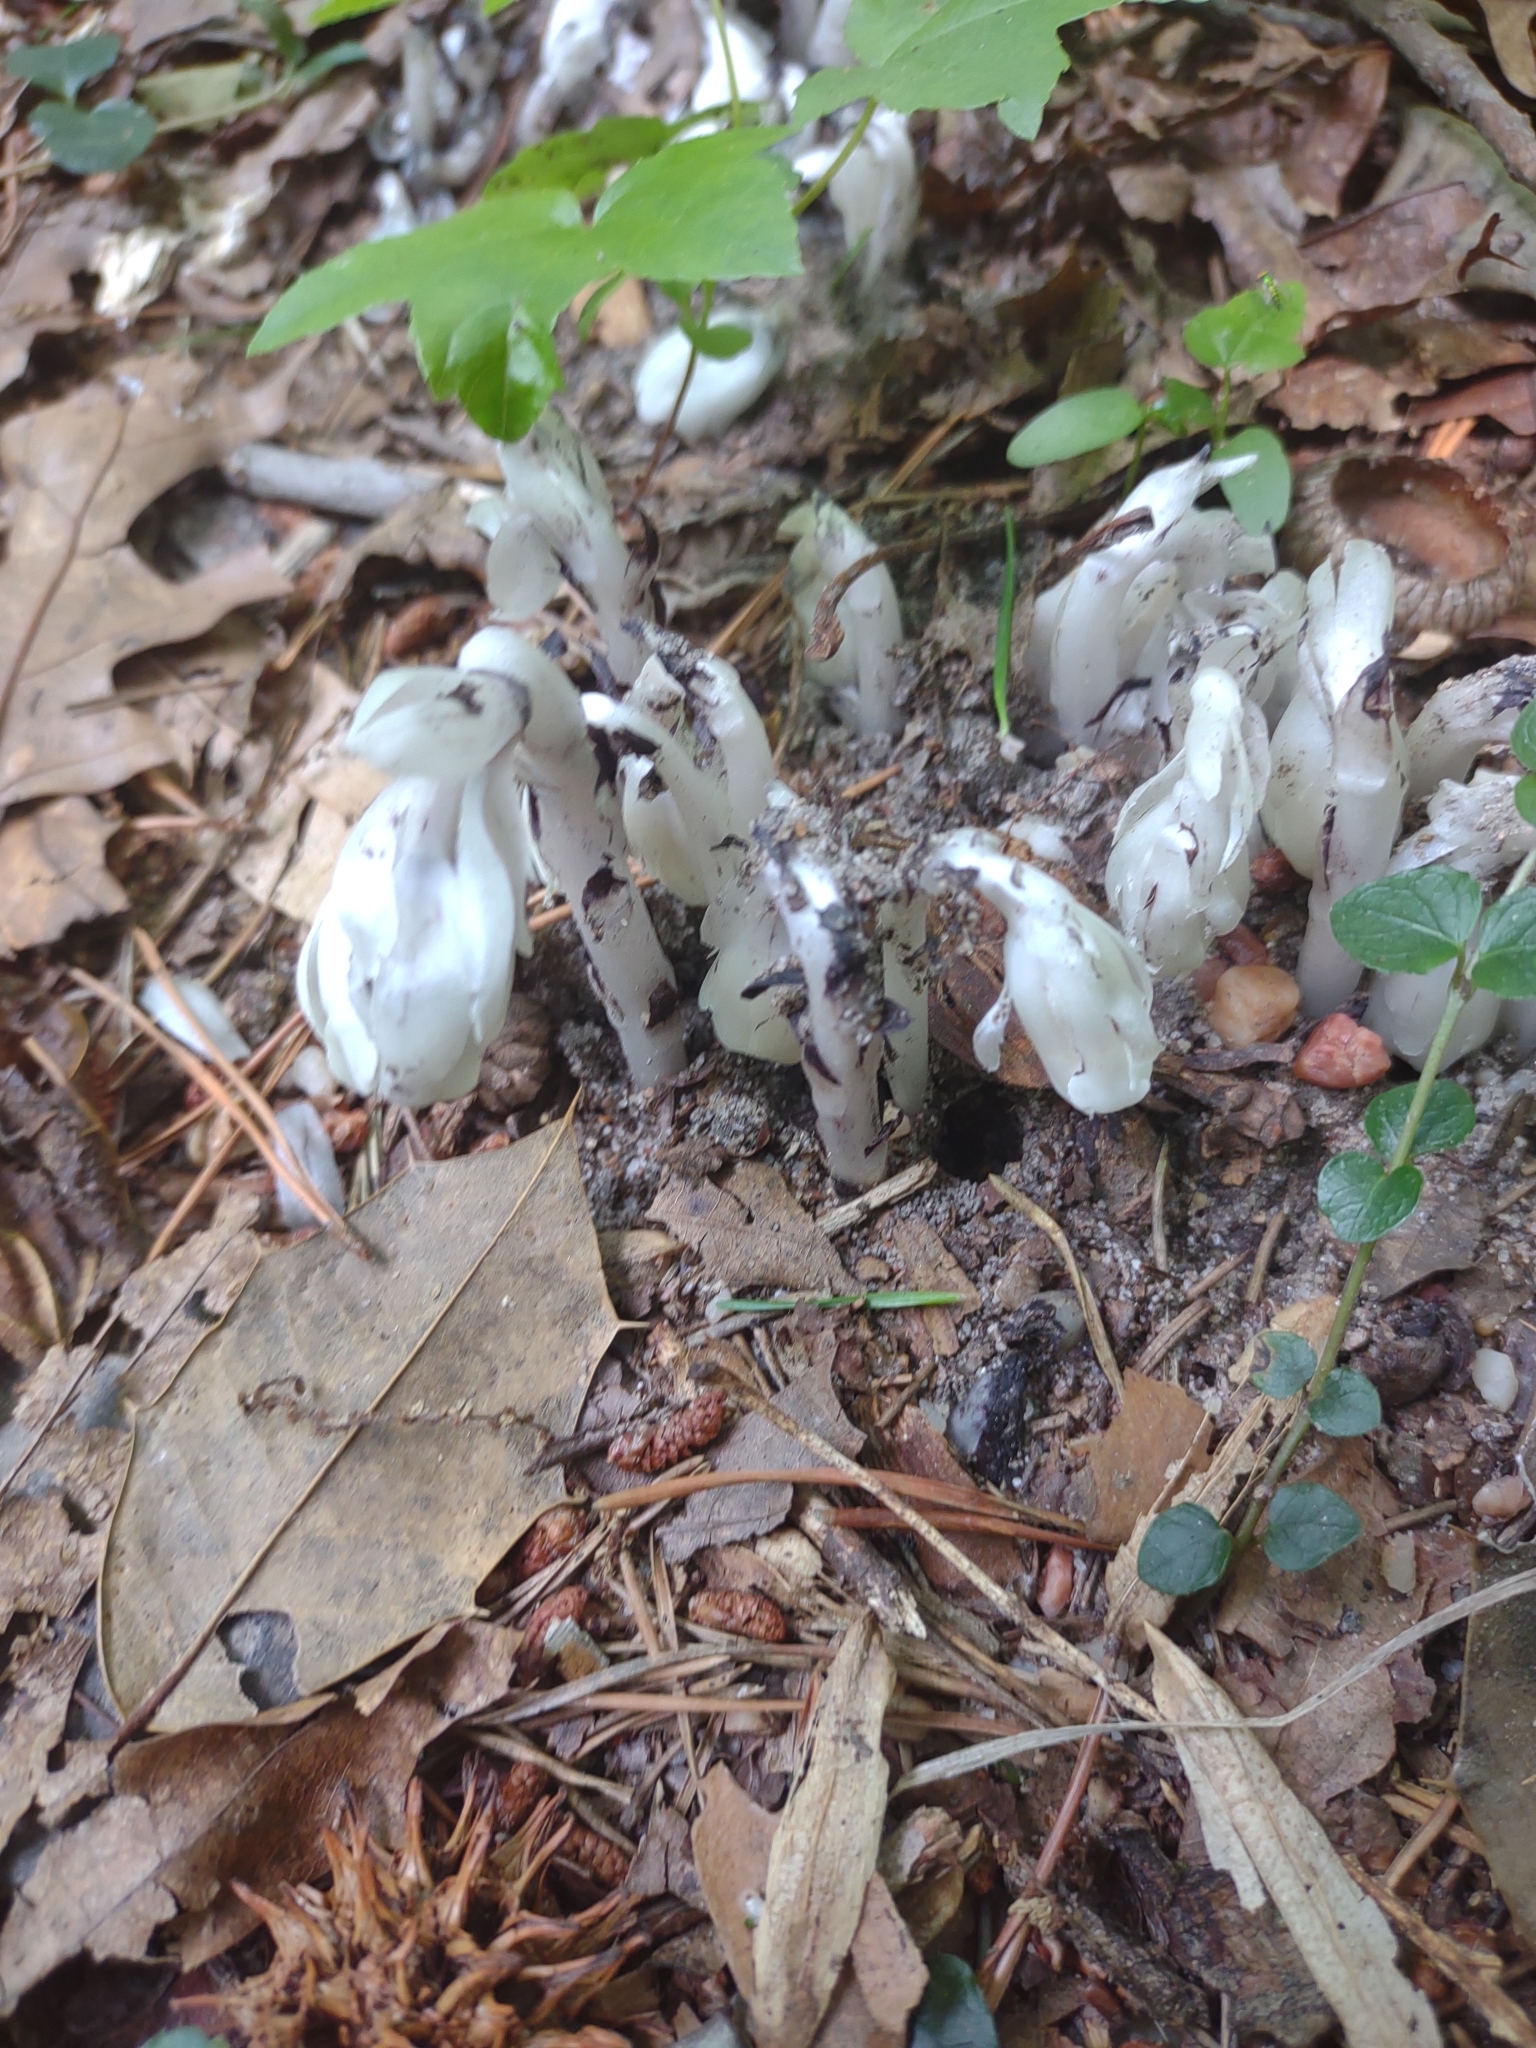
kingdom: Plantae
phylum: Tracheophyta
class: Magnoliopsida
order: Ericales
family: Ericaceae
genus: Monotropa
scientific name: Monotropa uniflora
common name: Convulsion root
